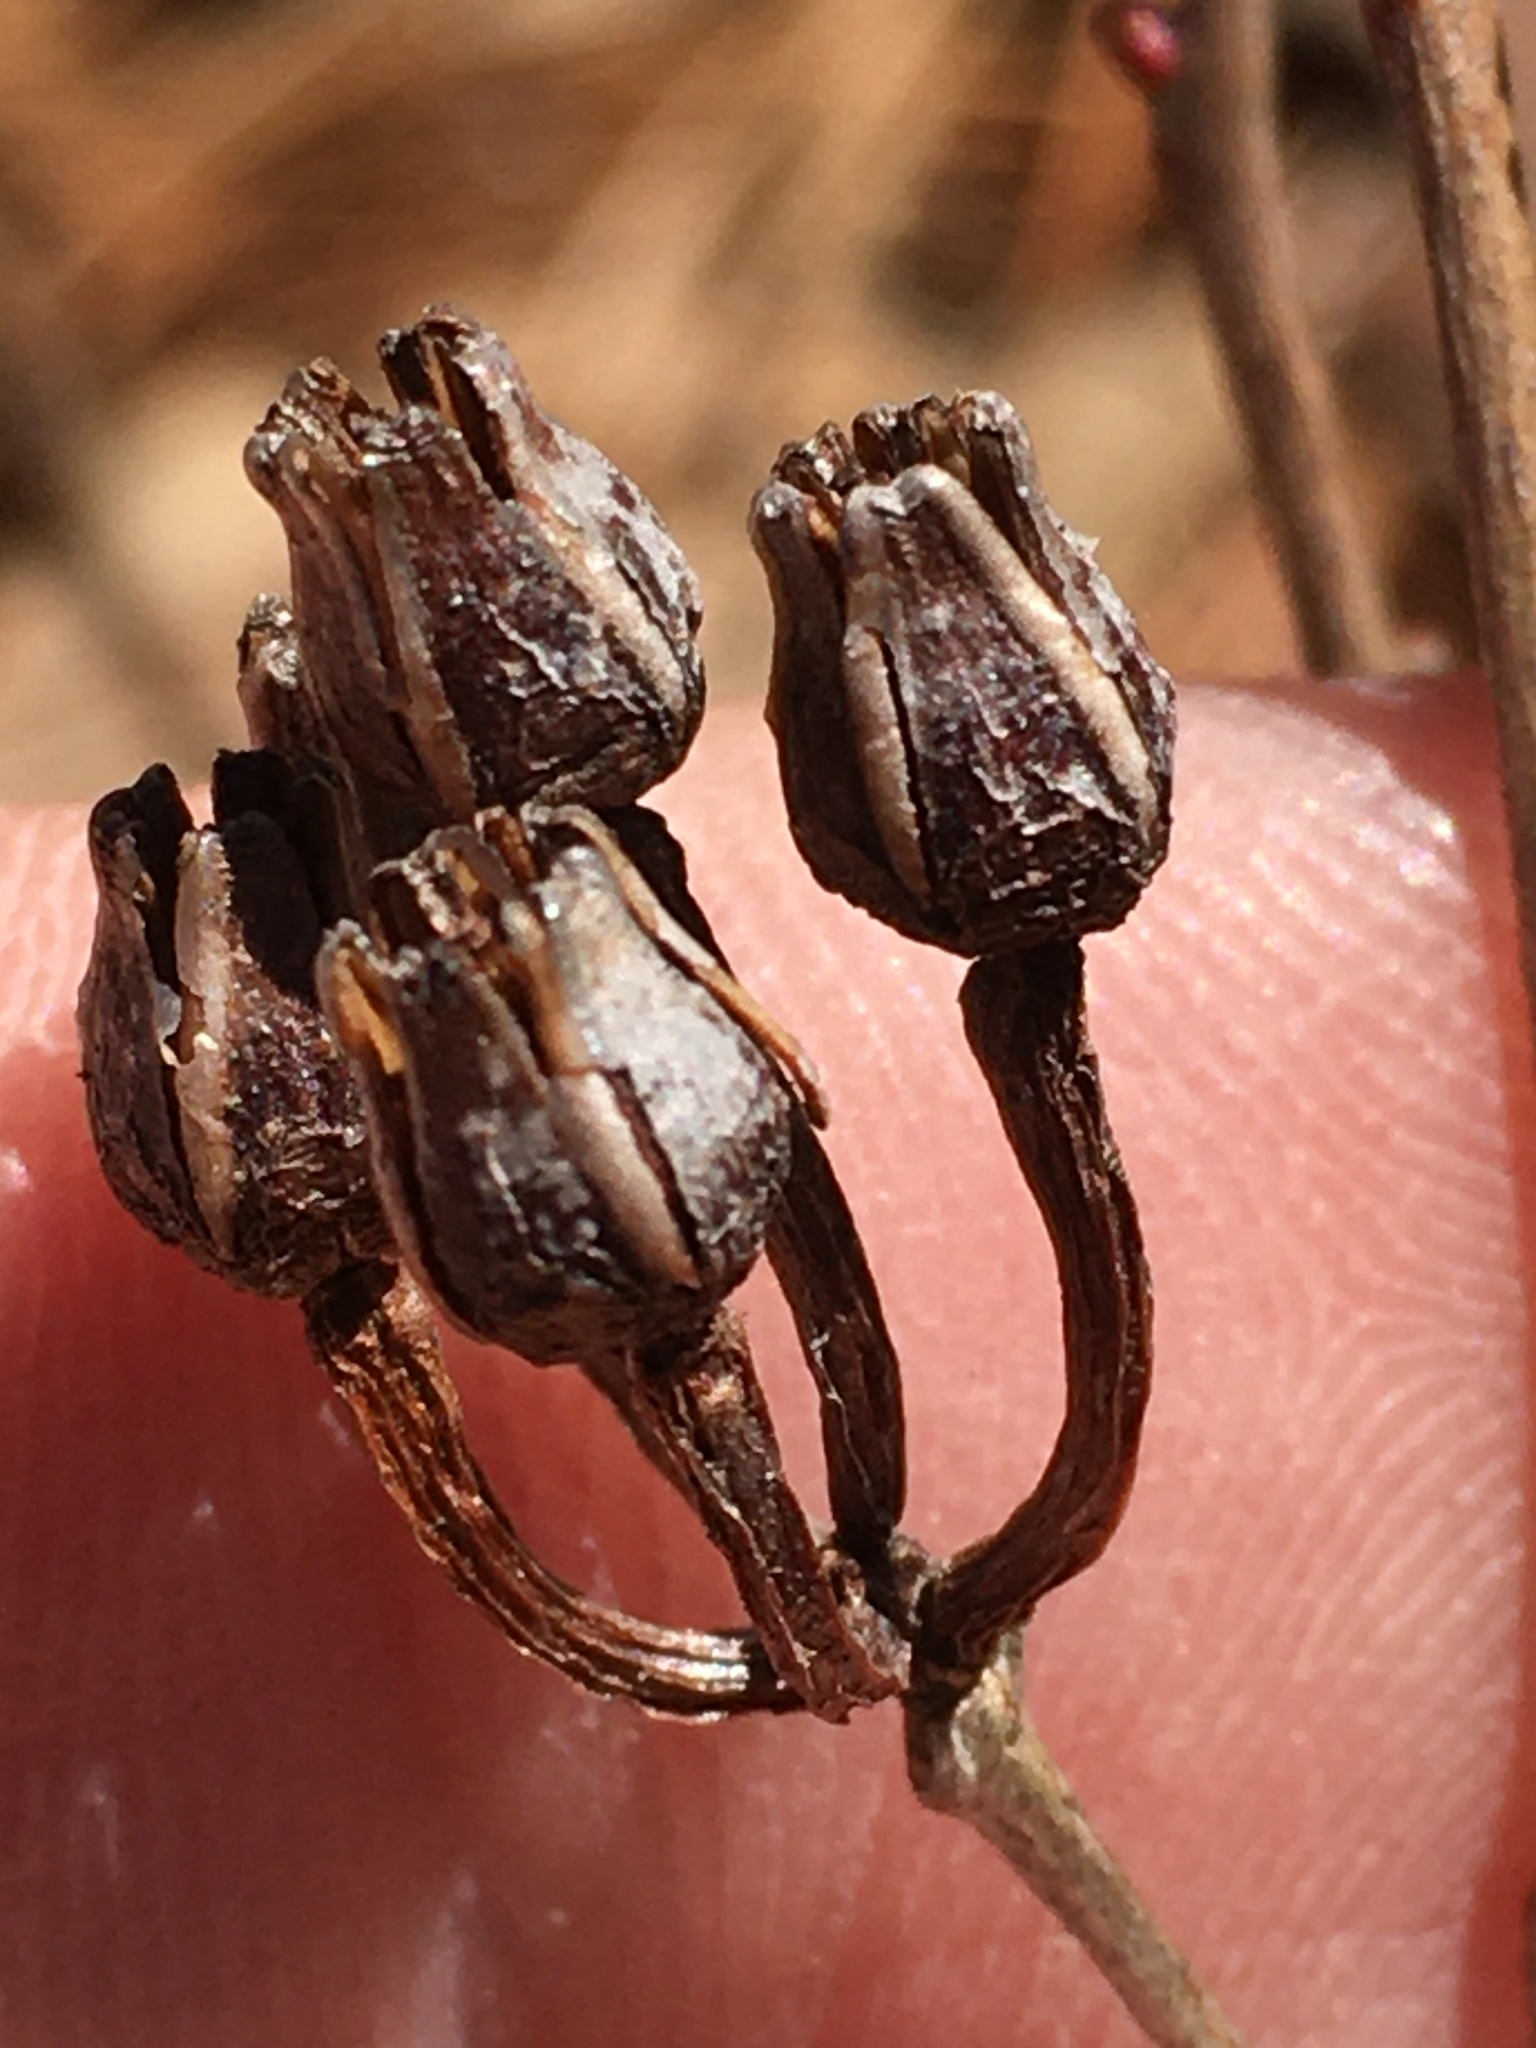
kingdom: Plantae
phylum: Tracheophyta
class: Magnoliopsida
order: Ericales
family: Ericaceae
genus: Lyonia
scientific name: Lyonia mariana
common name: Staggerbush
